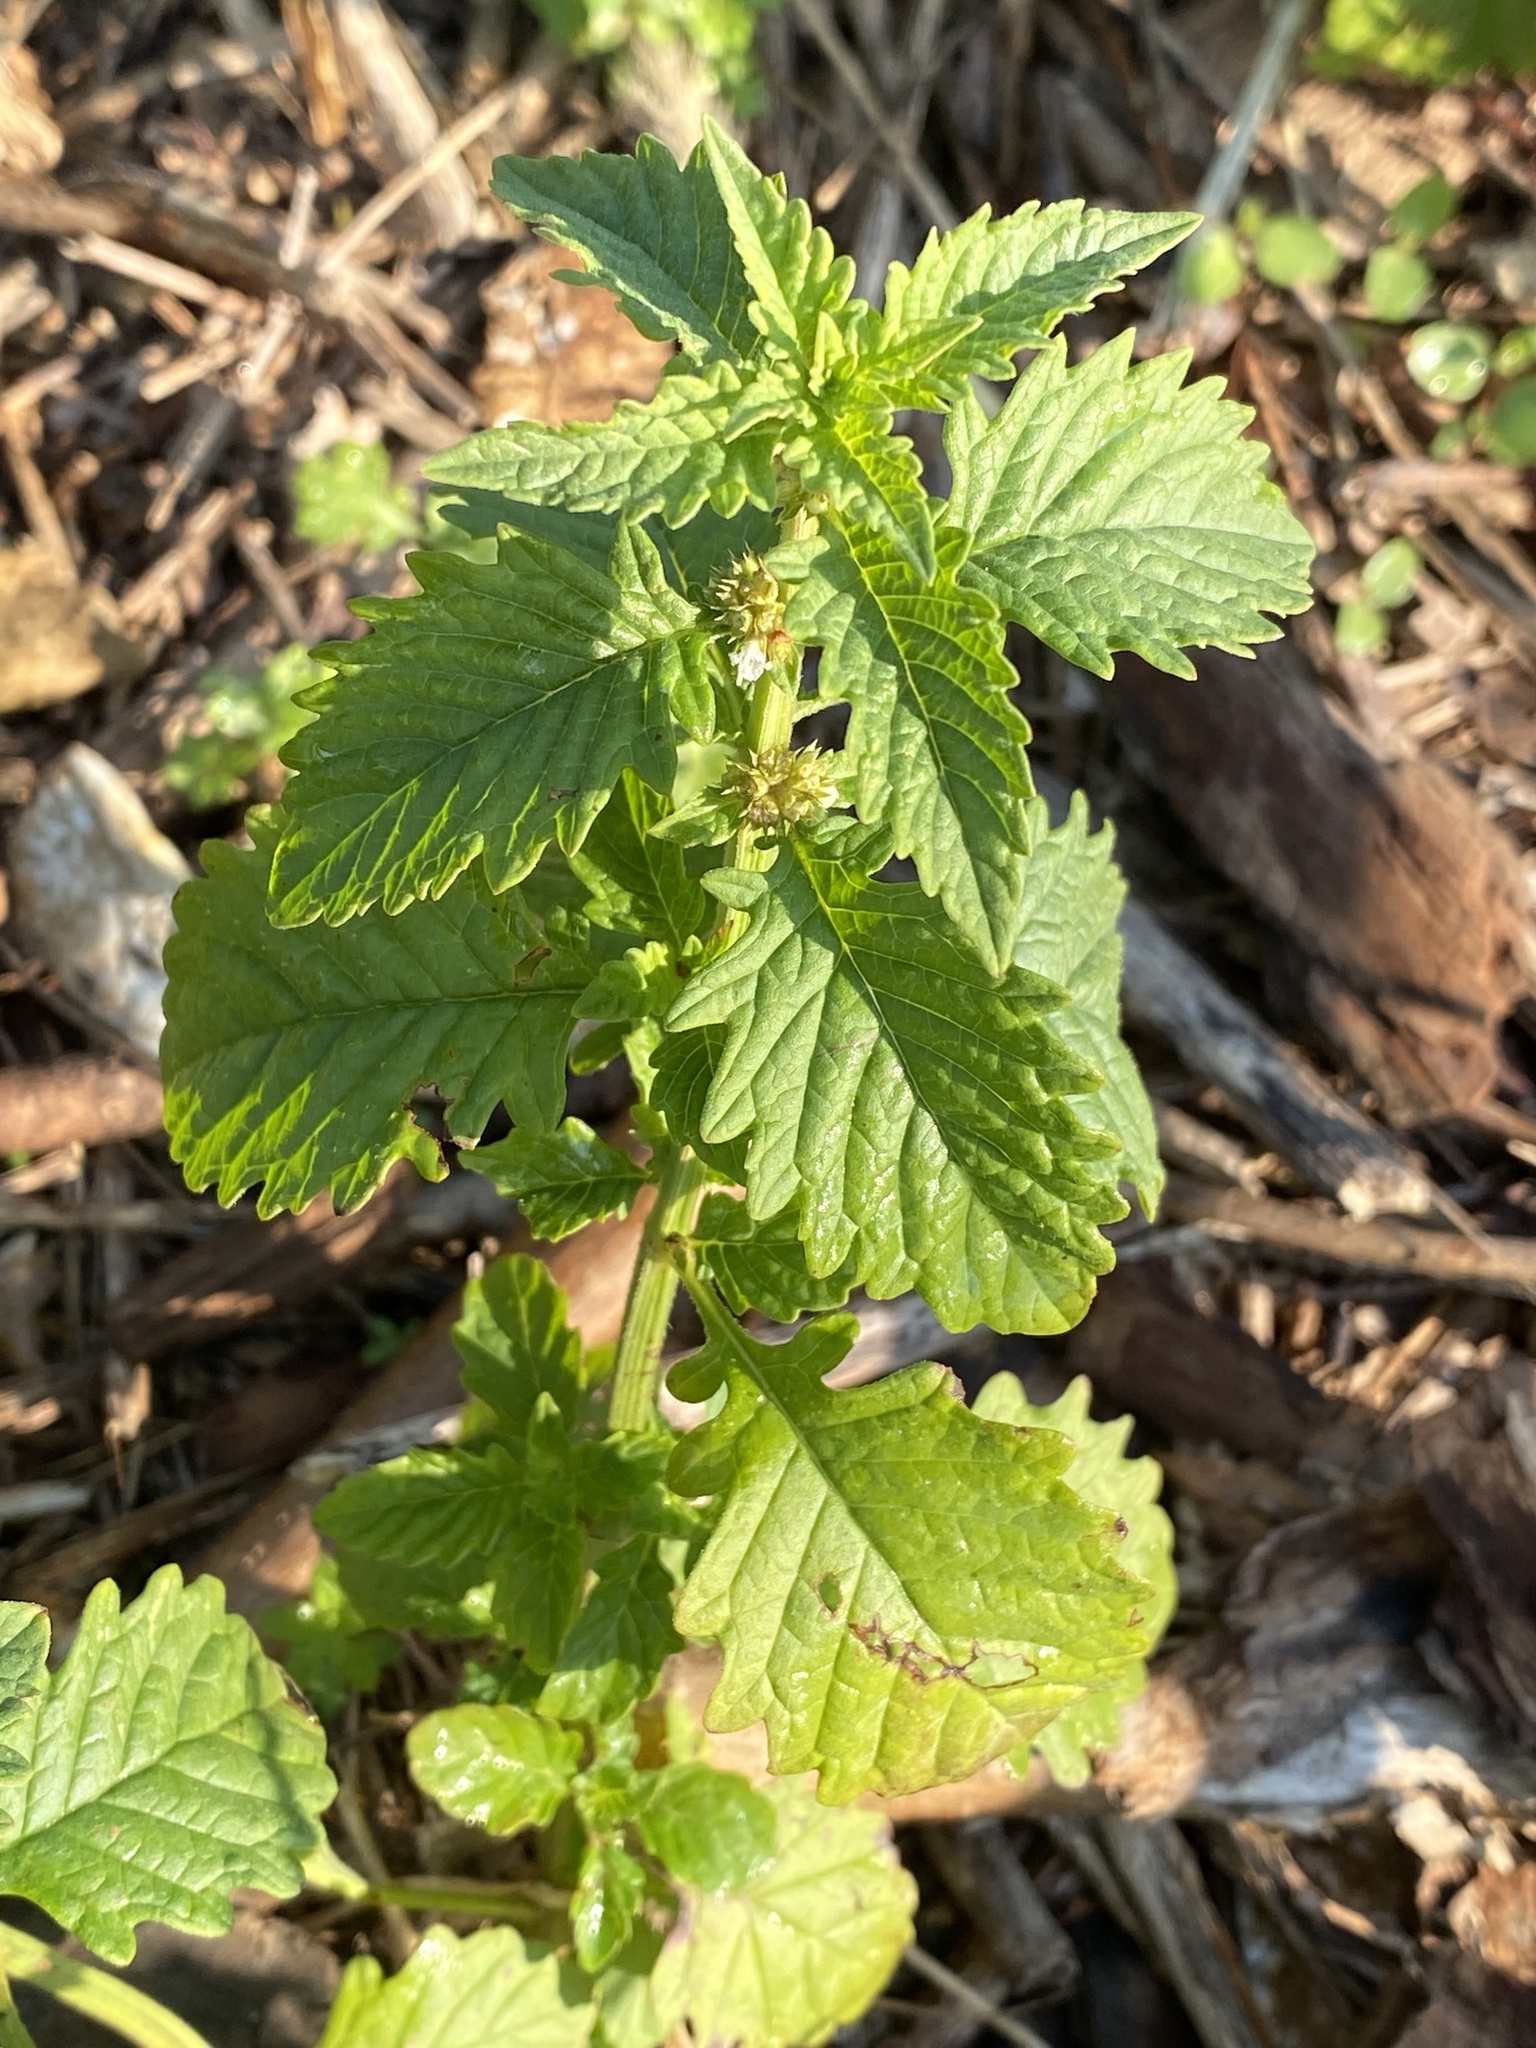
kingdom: Plantae
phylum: Tracheophyta
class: Magnoliopsida
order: Lamiales
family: Lamiaceae
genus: Lycopus
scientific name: Lycopus europaeus
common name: European bugleweed
